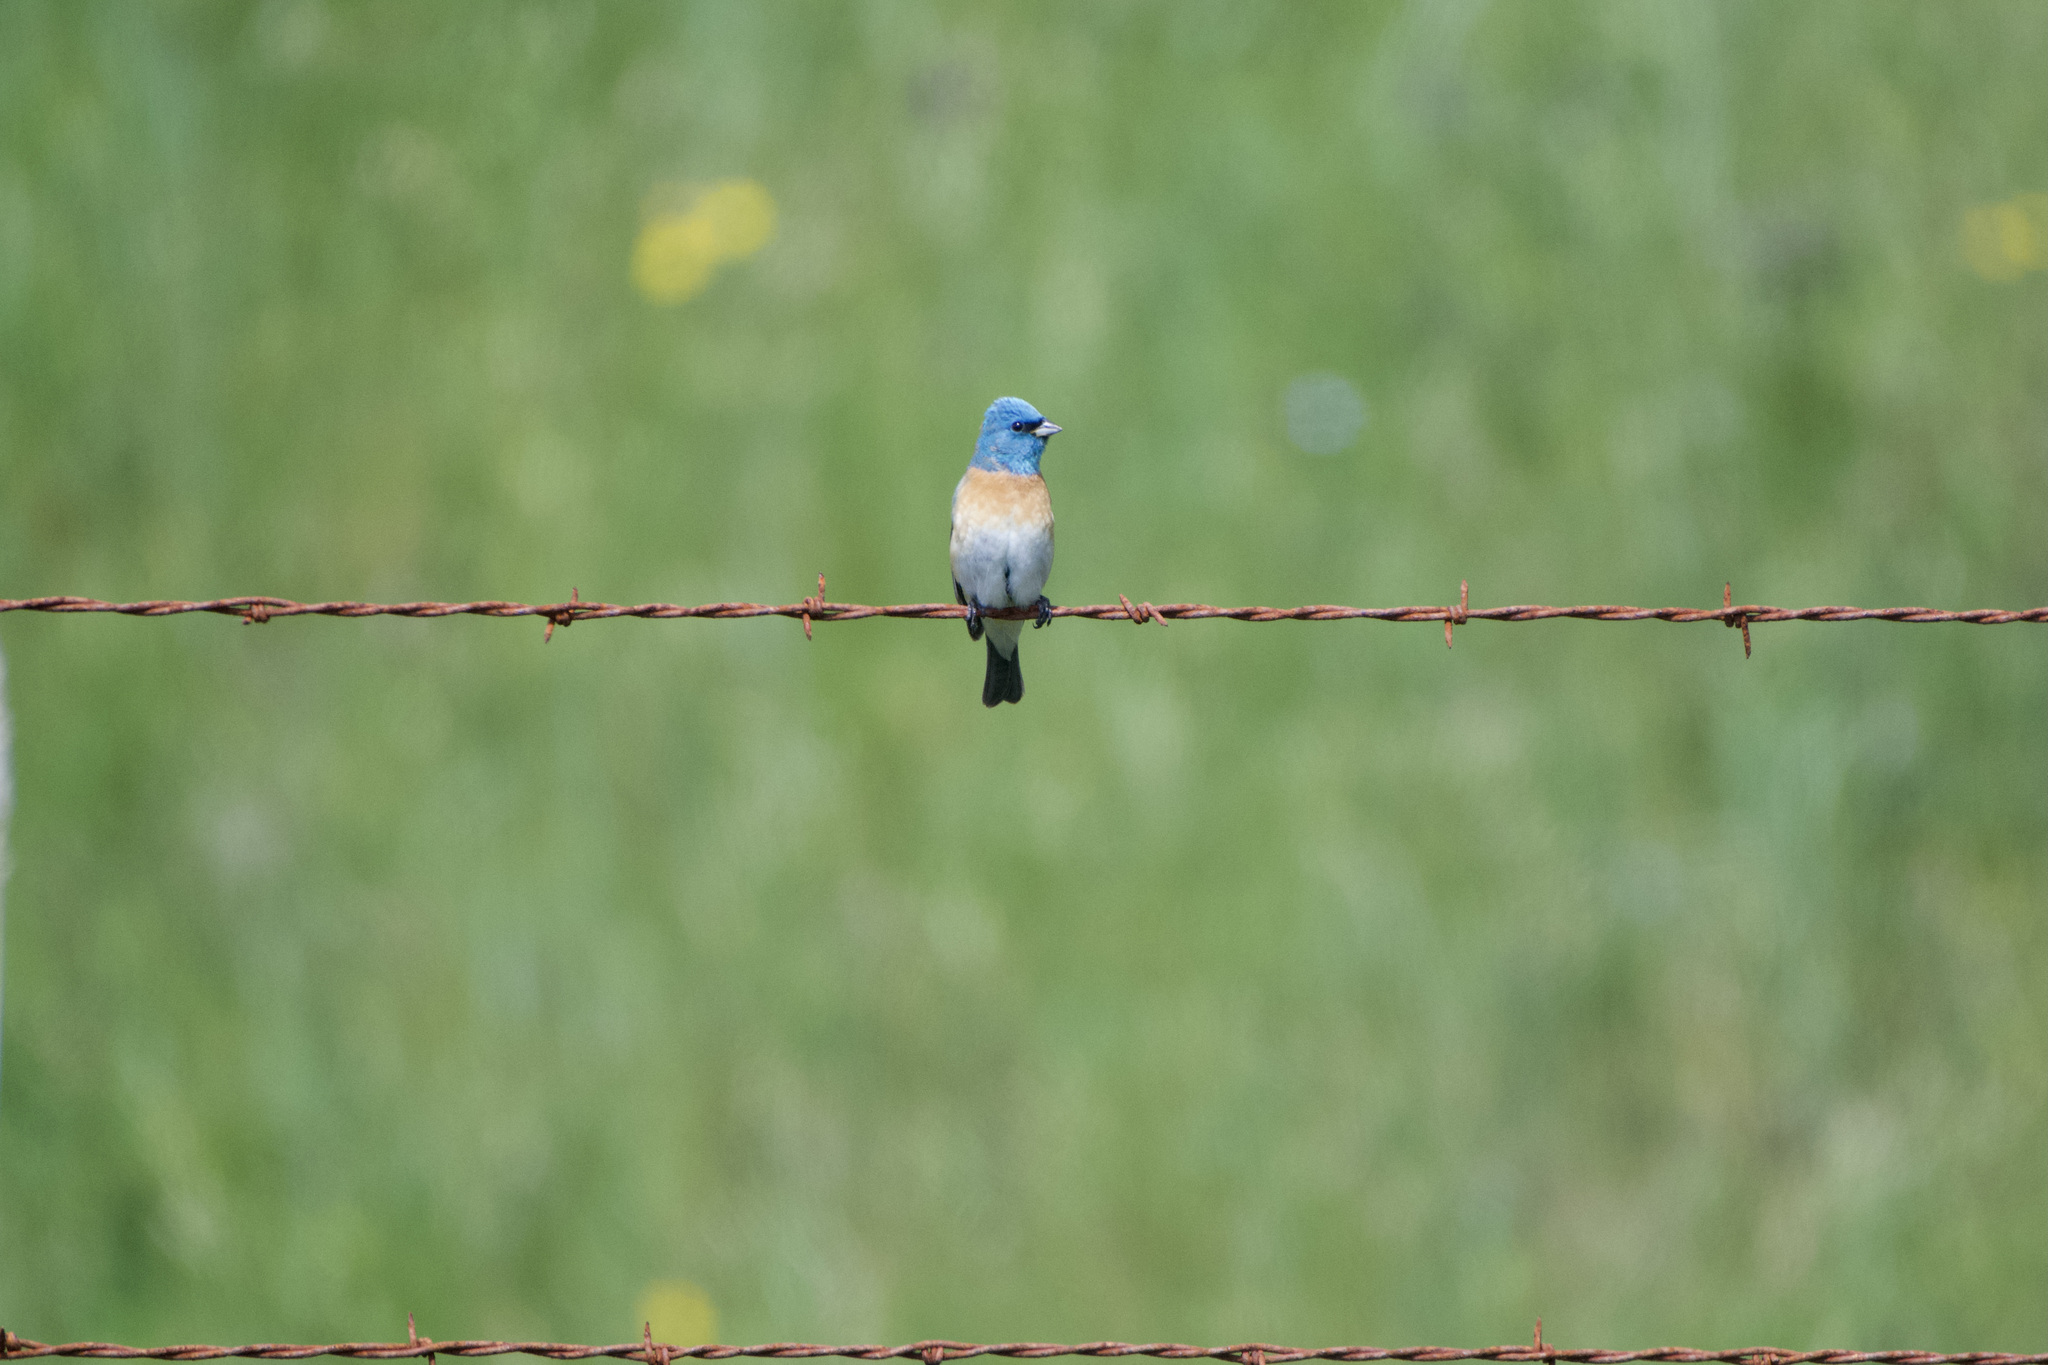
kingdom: Animalia
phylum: Chordata
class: Aves
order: Passeriformes
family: Cardinalidae
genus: Passerina
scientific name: Passerina amoena
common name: Lazuli bunting
